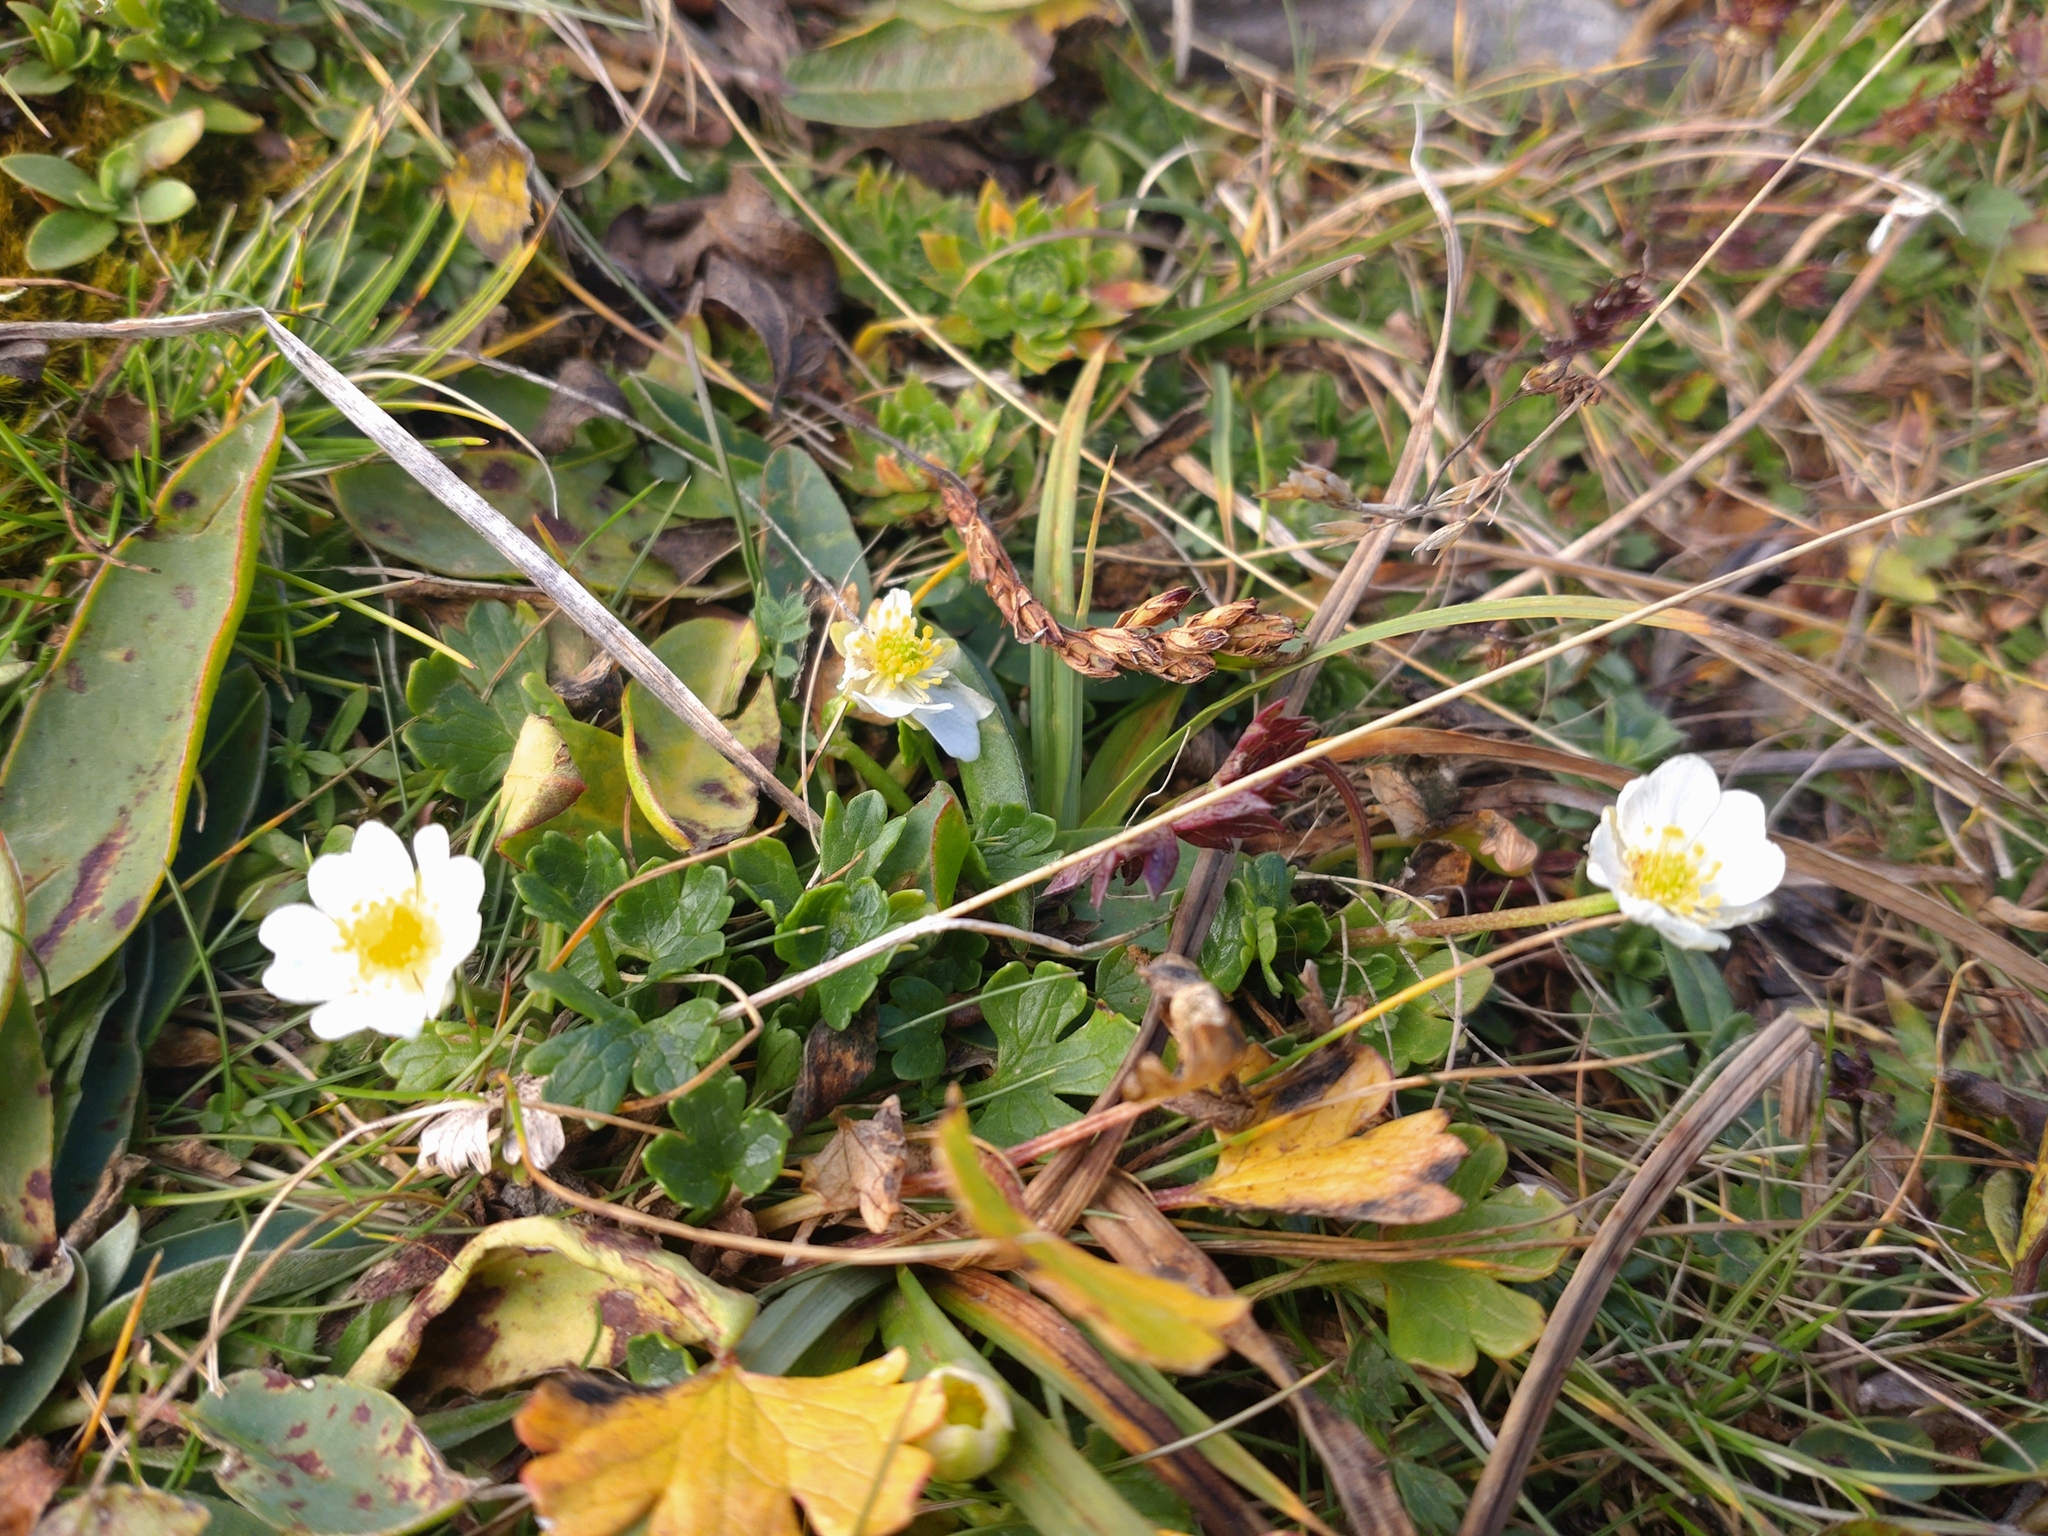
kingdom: Plantae
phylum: Tracheophyta
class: Magnoliopsida
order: Ranunculales
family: Ranunculaceae
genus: Ranunculus
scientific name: Ranunculus alpestris
